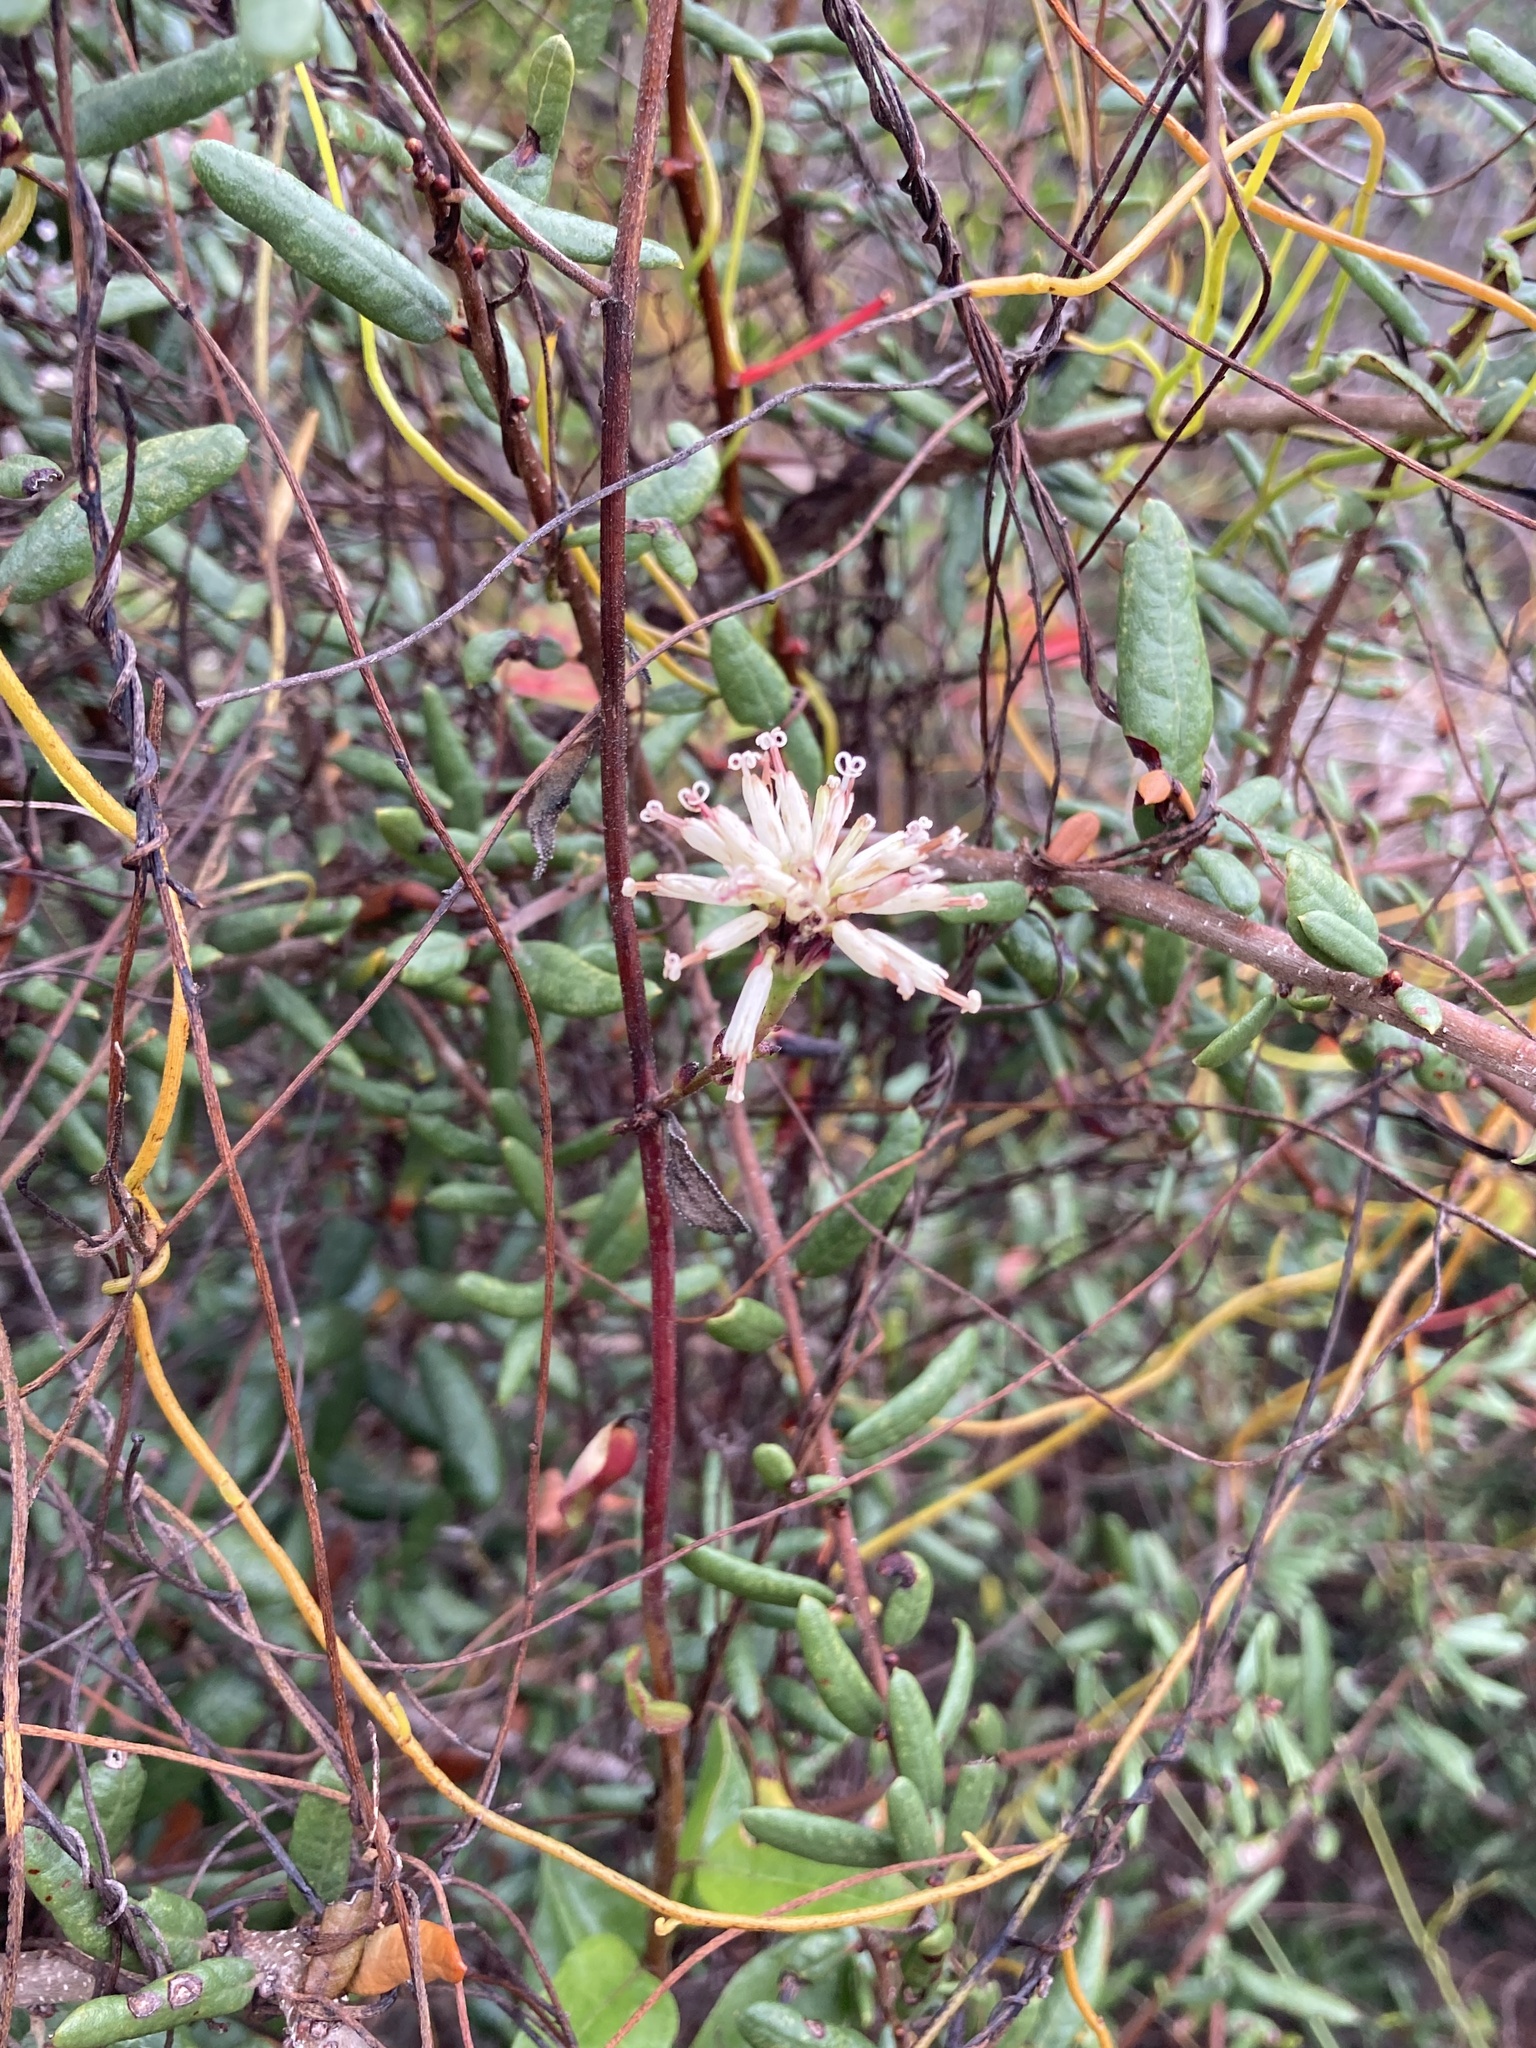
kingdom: Plantae
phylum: Tracheophyta
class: Magnoliopsida
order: Asterales
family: Asteraceae
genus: Palafoxia
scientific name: Palafoxia feayi
